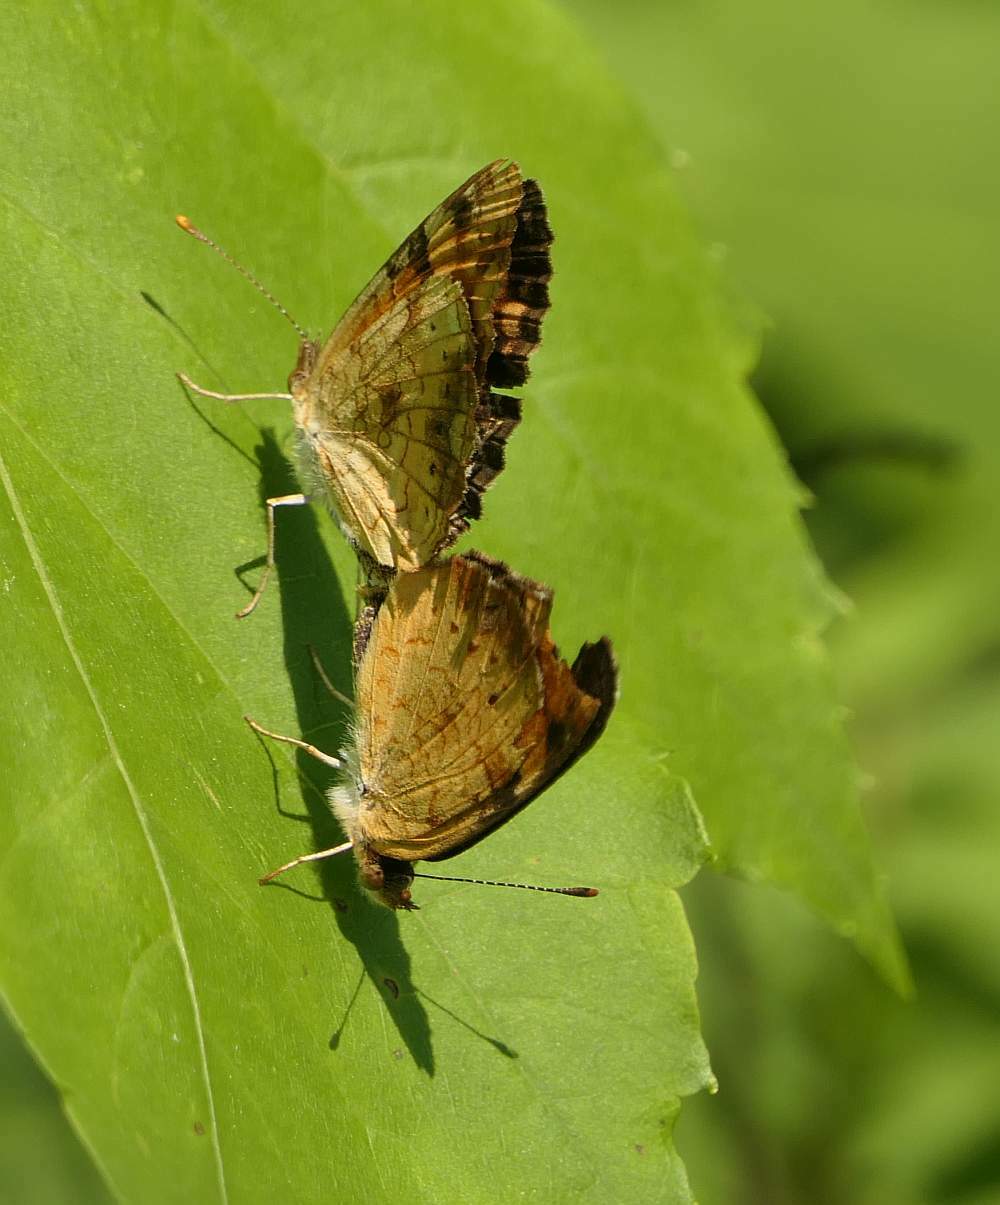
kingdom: Animalia
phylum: Arthropoda
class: Insecta
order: Lepidoptera
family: Nymphalidae
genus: Phyciodes
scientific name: Phyciodes tharos
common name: Pearl crescent
